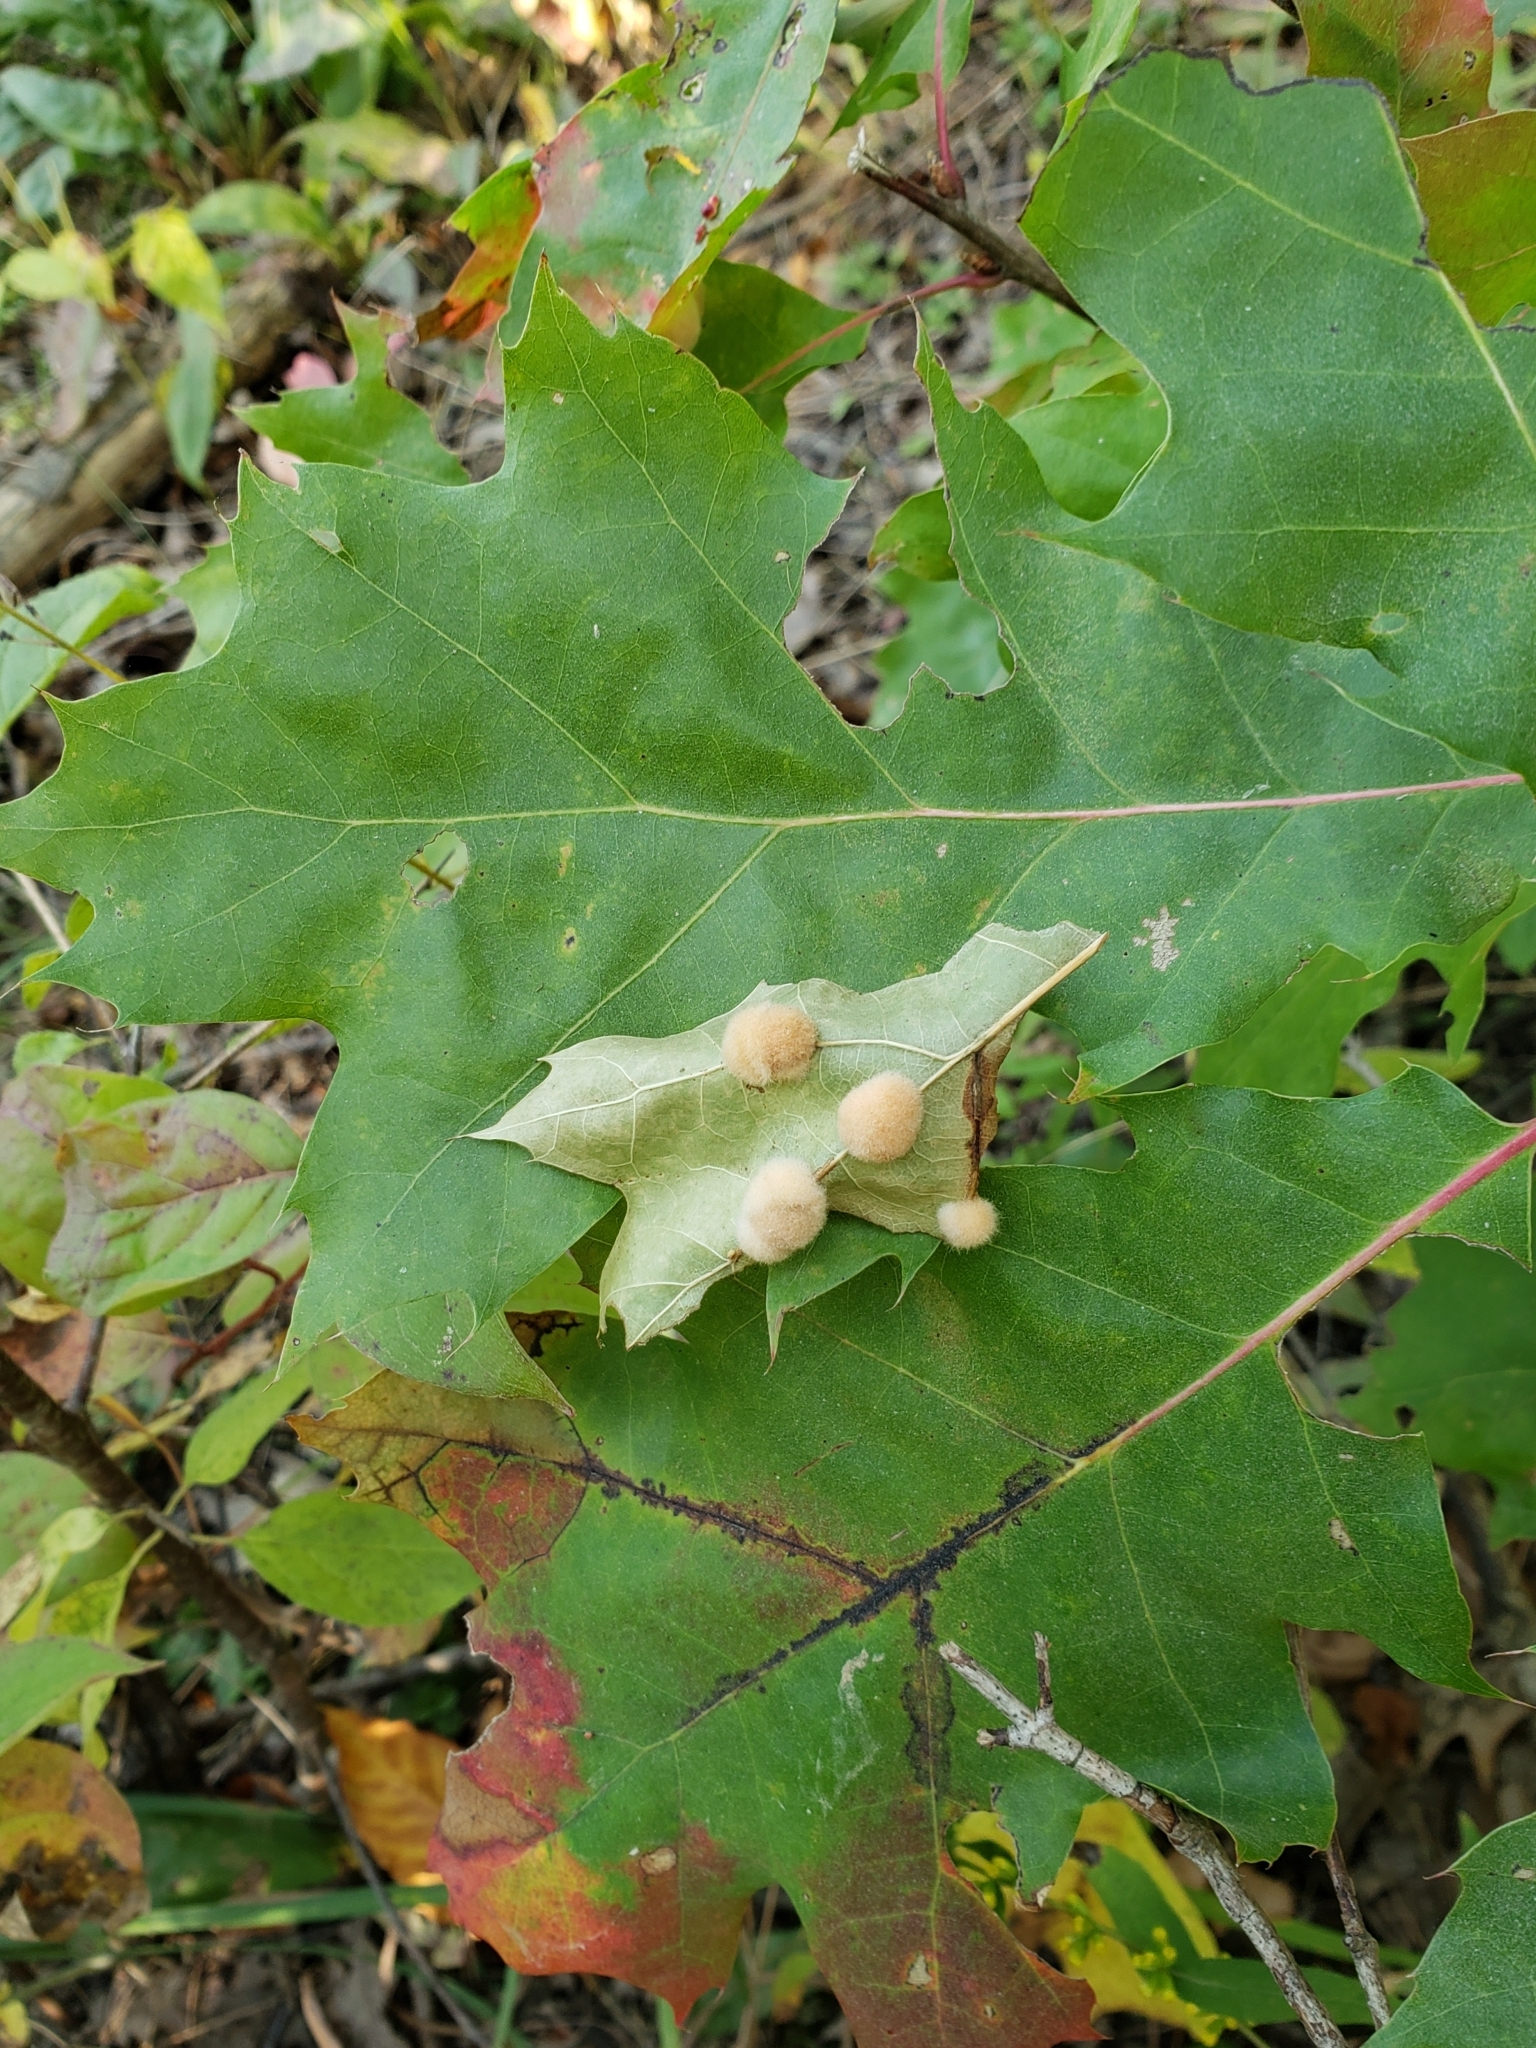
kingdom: Animalia
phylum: Arthropoda
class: Insecta
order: Hymenoptera
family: Cynipidae
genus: Callirhytis
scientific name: Callirhytis
